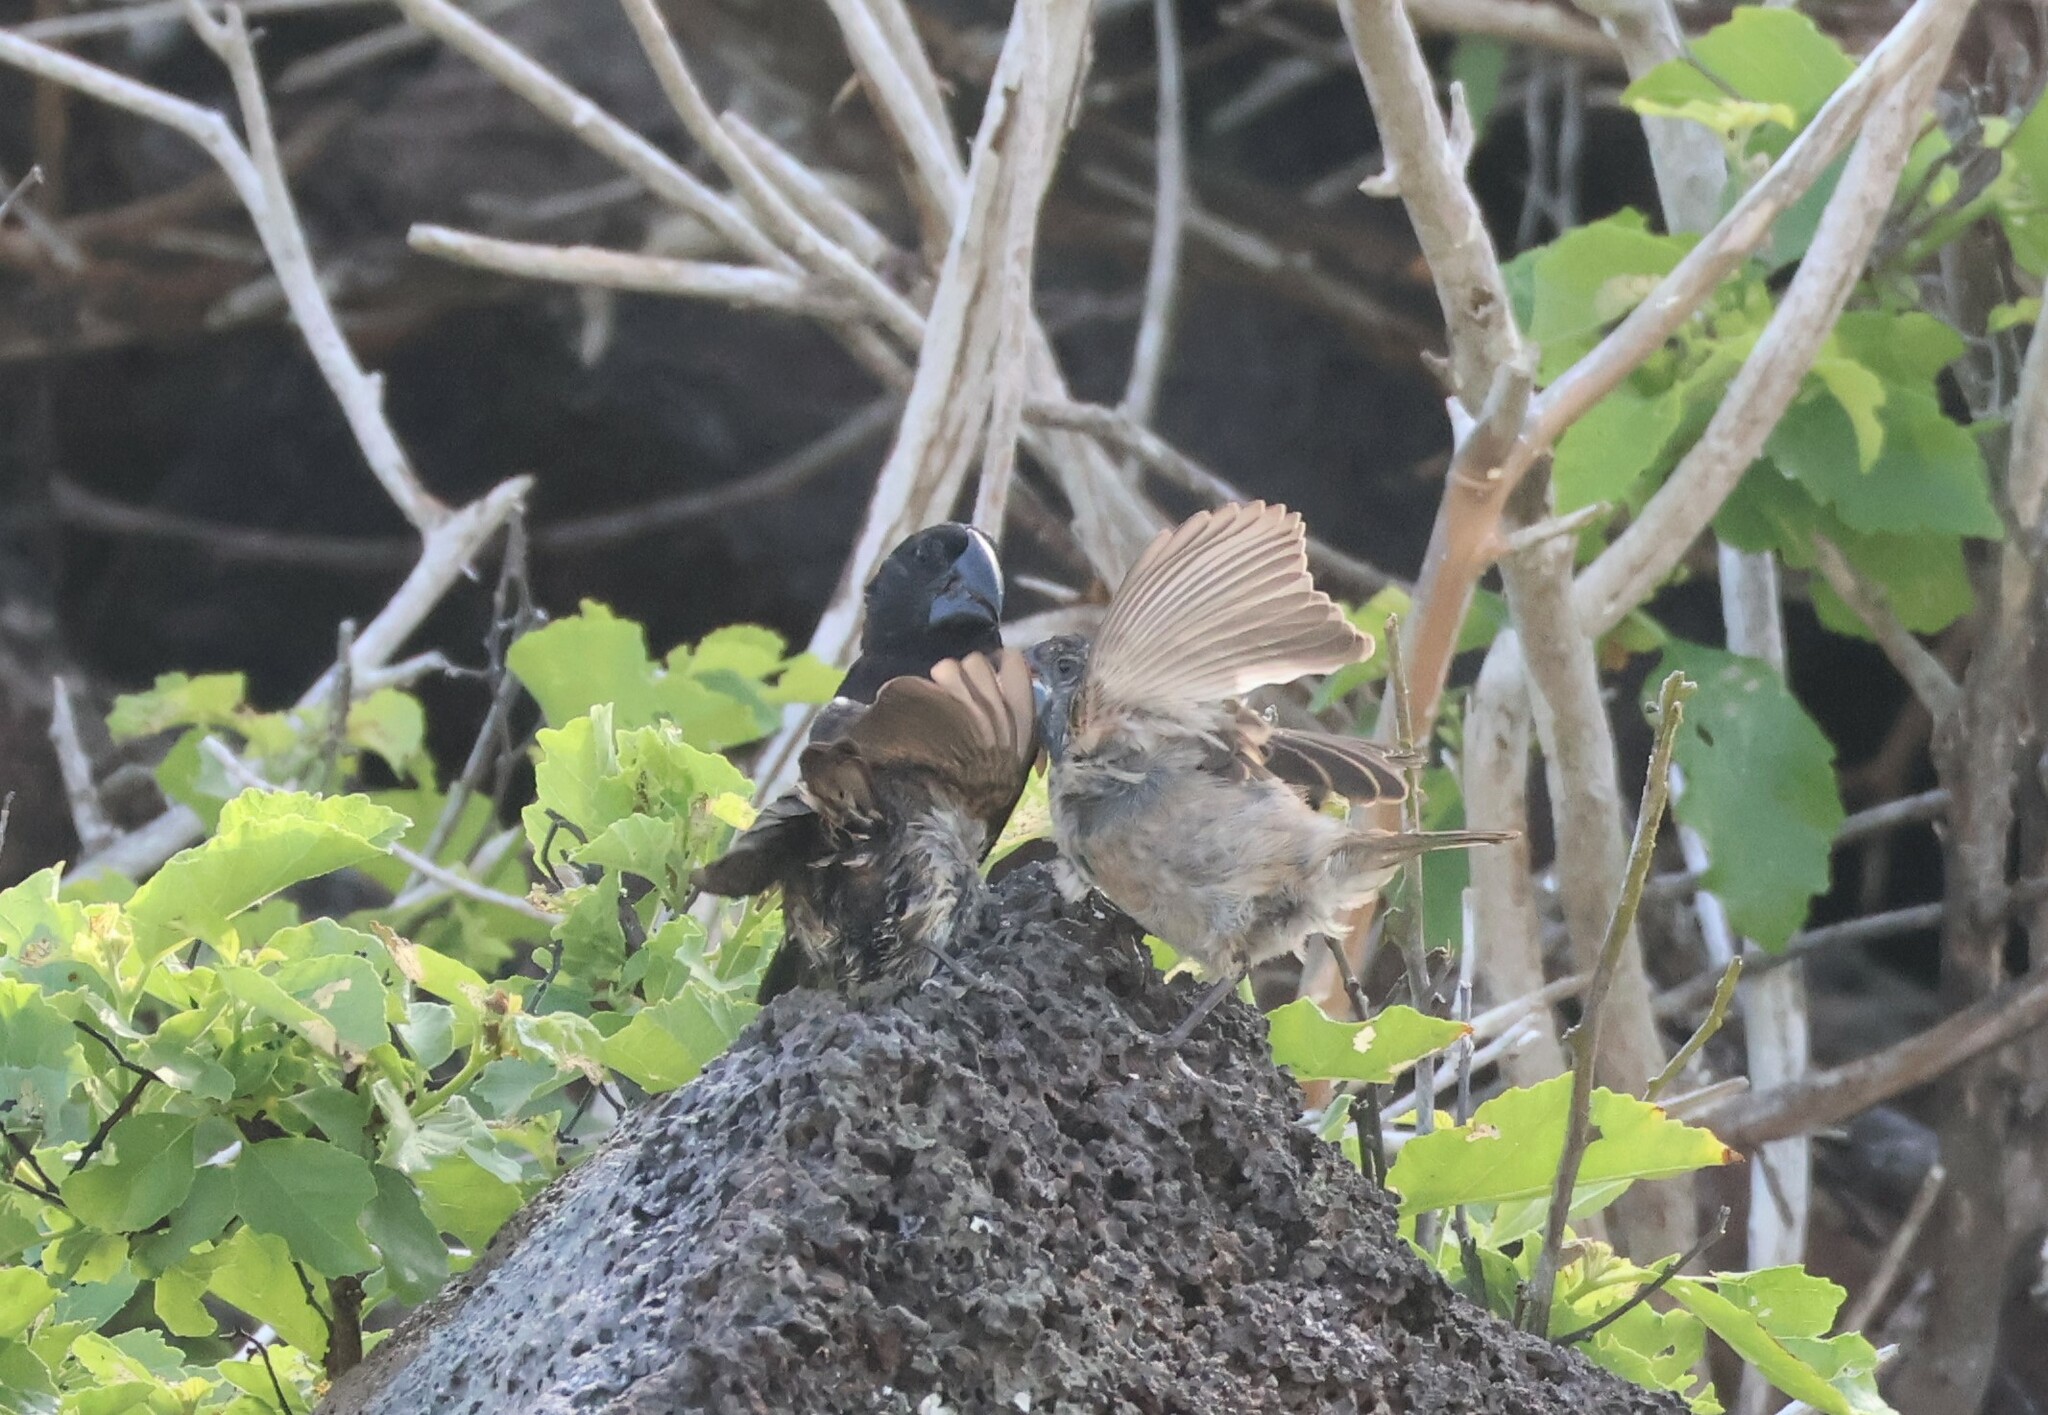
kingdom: Animalia
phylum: Chordata
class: Aves
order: Passeriformes
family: Thraupidae
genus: Geospiza
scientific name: Geospiza magnirostris
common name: Large ground-finch
